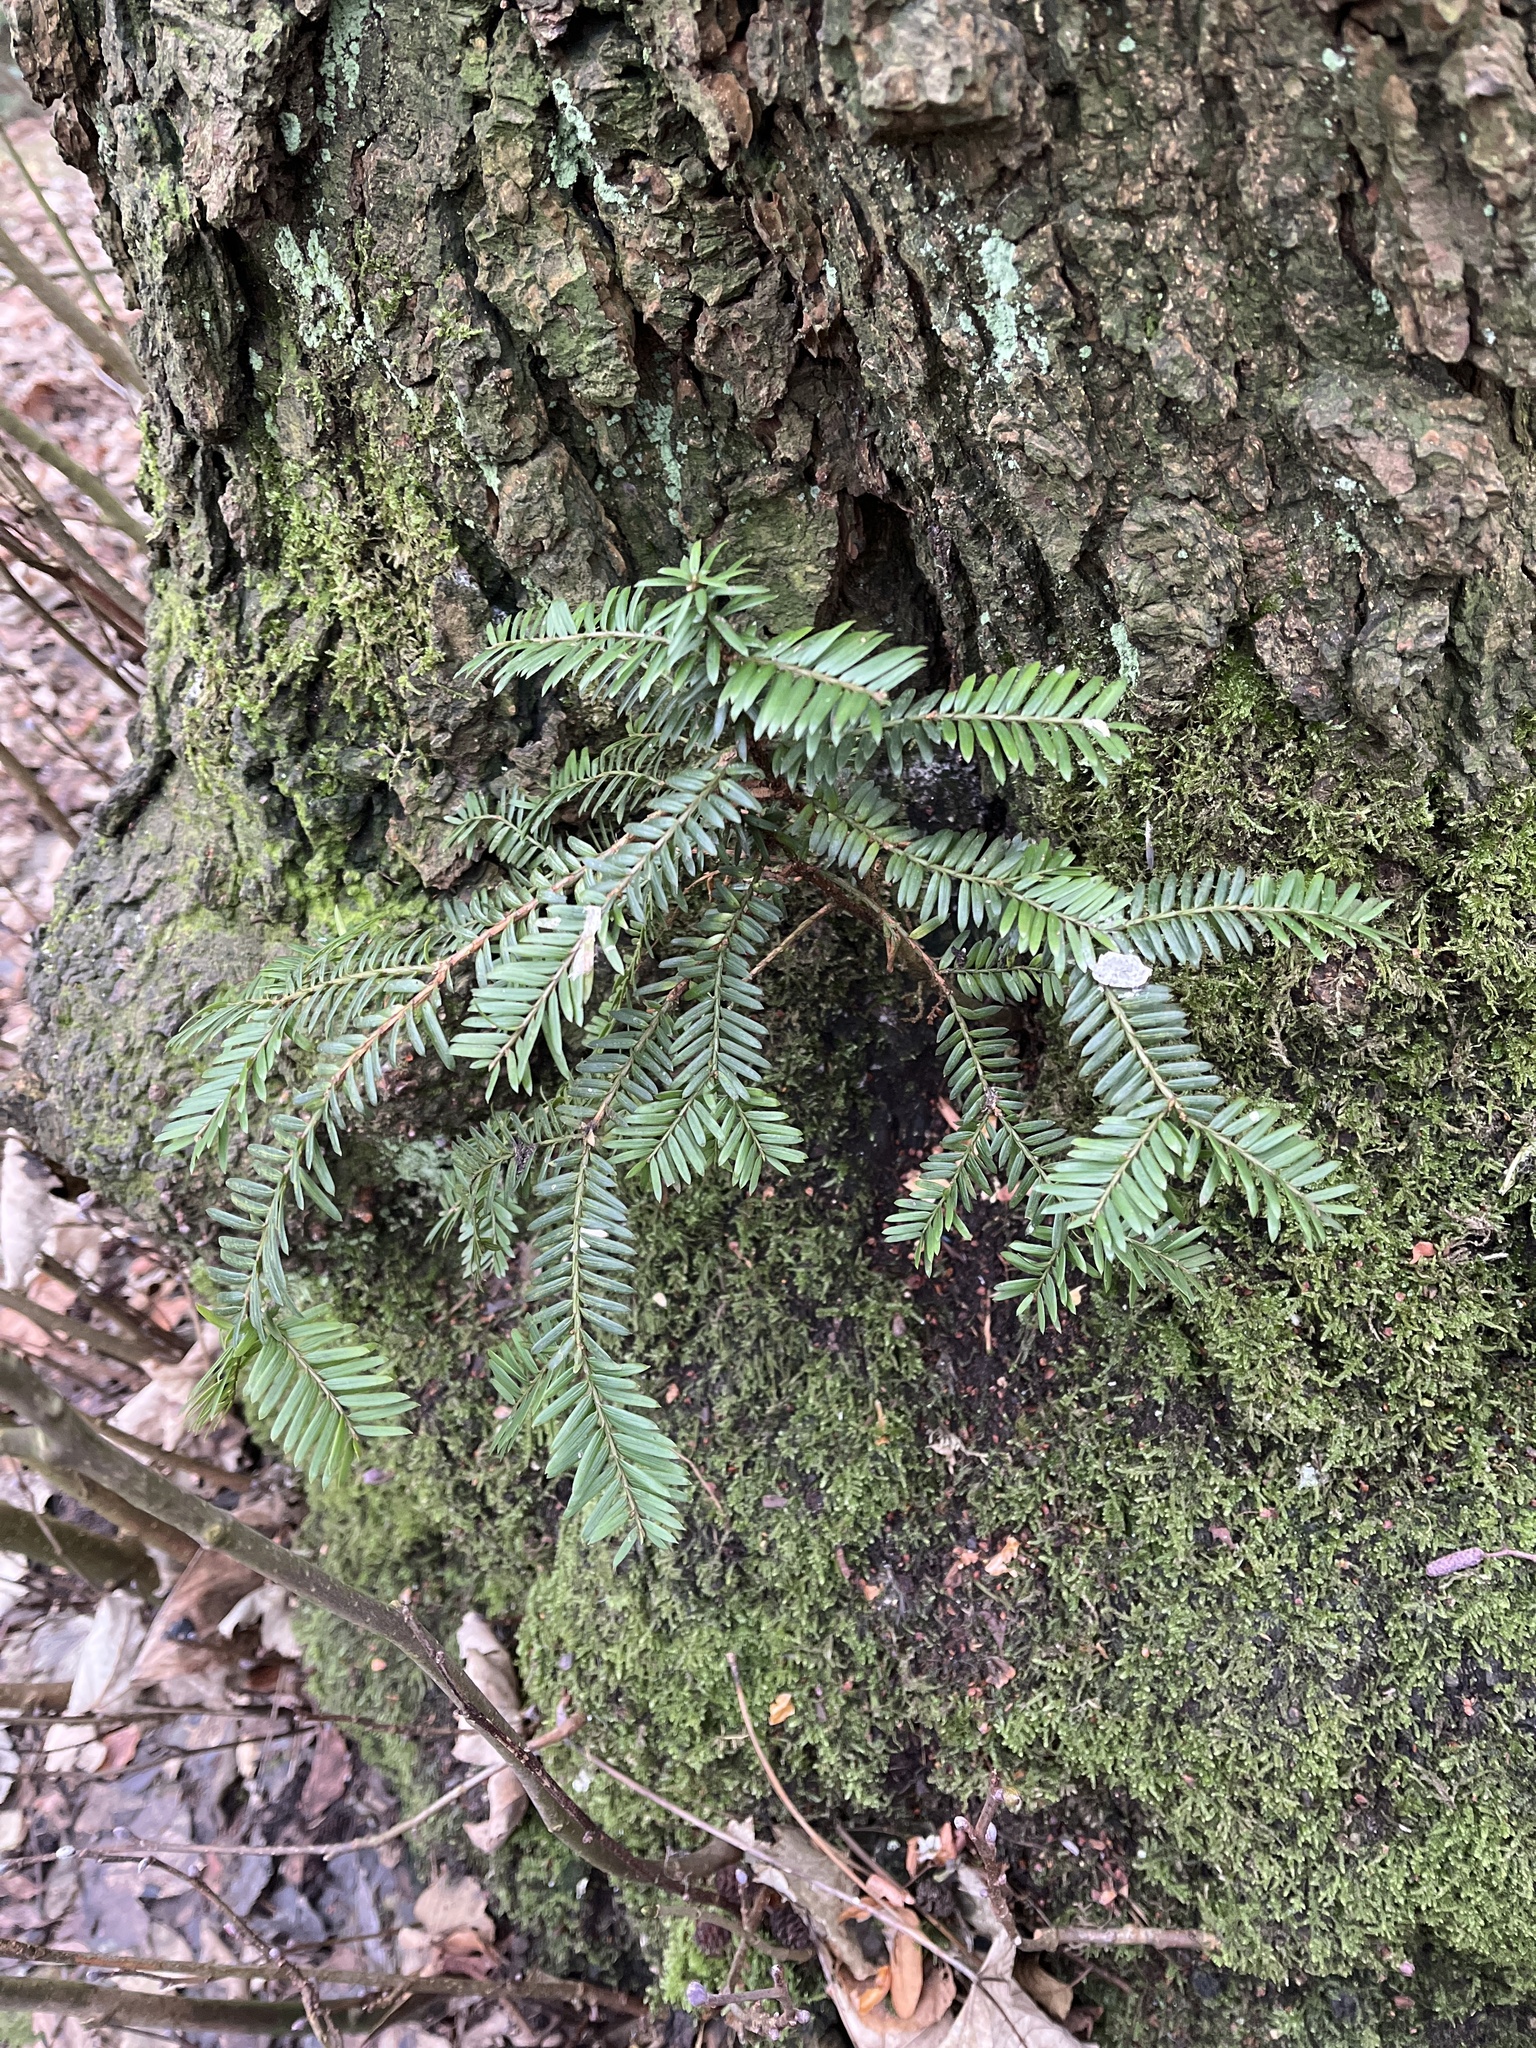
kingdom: Plantae
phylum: Tracheophyta
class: Pinopsida
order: Pinales
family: Taxaceae
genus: Taxus
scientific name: Taxus baccata
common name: Yew
